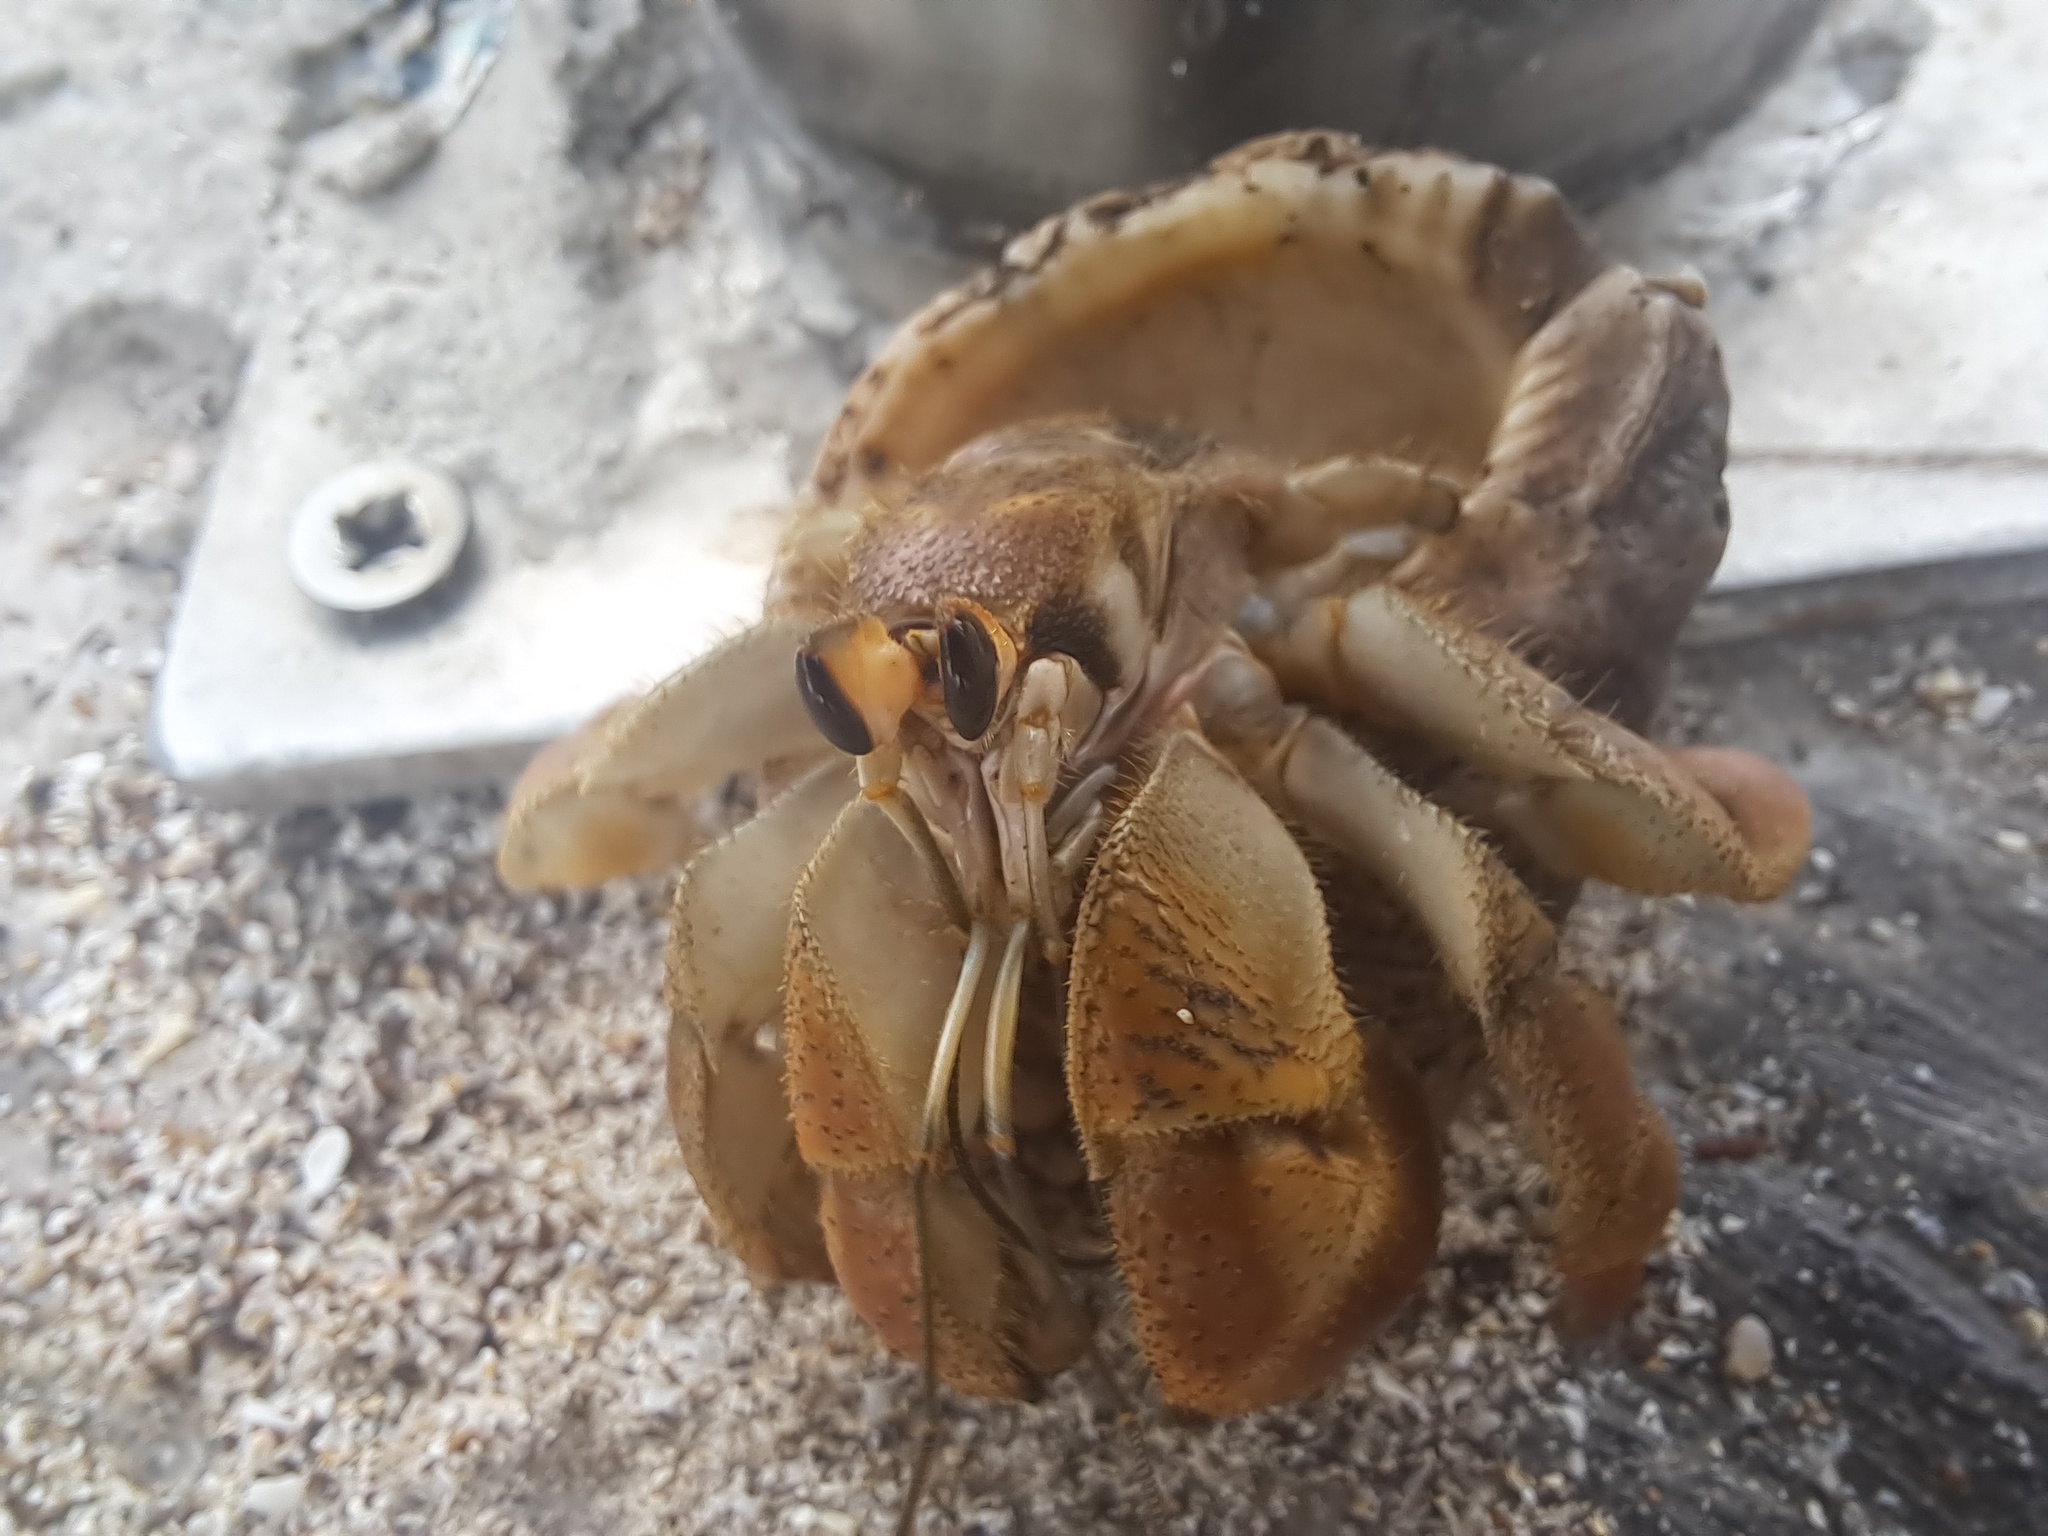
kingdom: Animalia
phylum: Arthropoda
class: Malacostraca
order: Decapoda
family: Coenobitidae
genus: Coenobita
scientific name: Coenobita compressus
